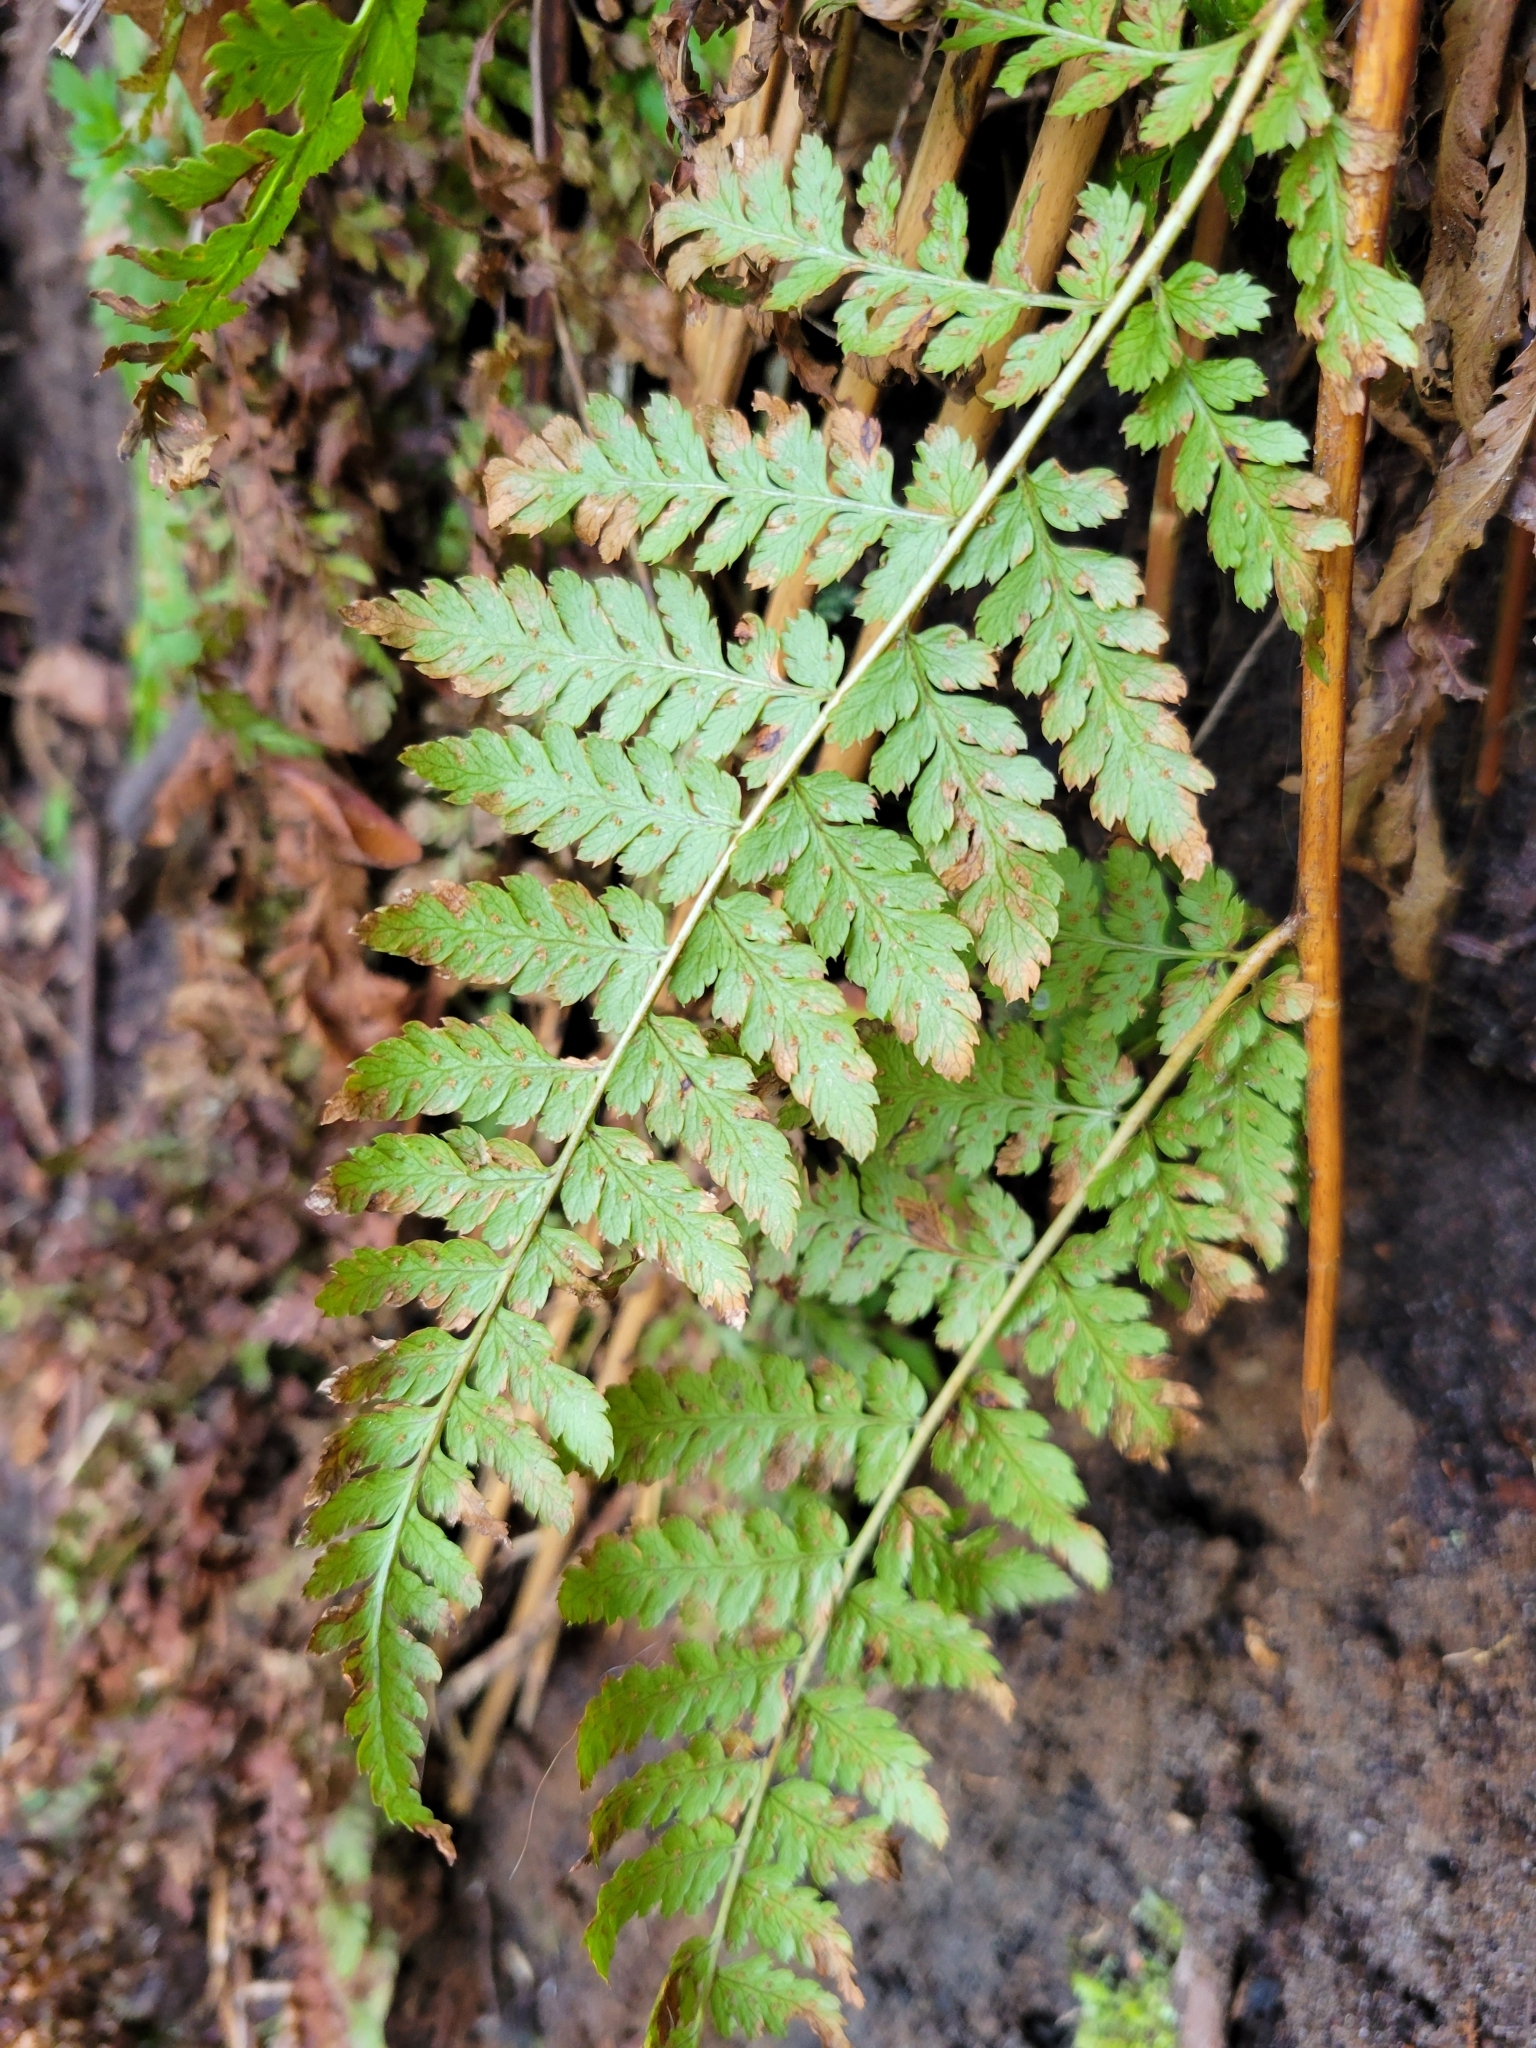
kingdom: Plantae
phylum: Tracheophyta
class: Polypodiopsida
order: Polypodiales
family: Dryopteridaceae
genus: Dryopteris
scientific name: Dryopteris expansa
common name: Northern buckler fern
